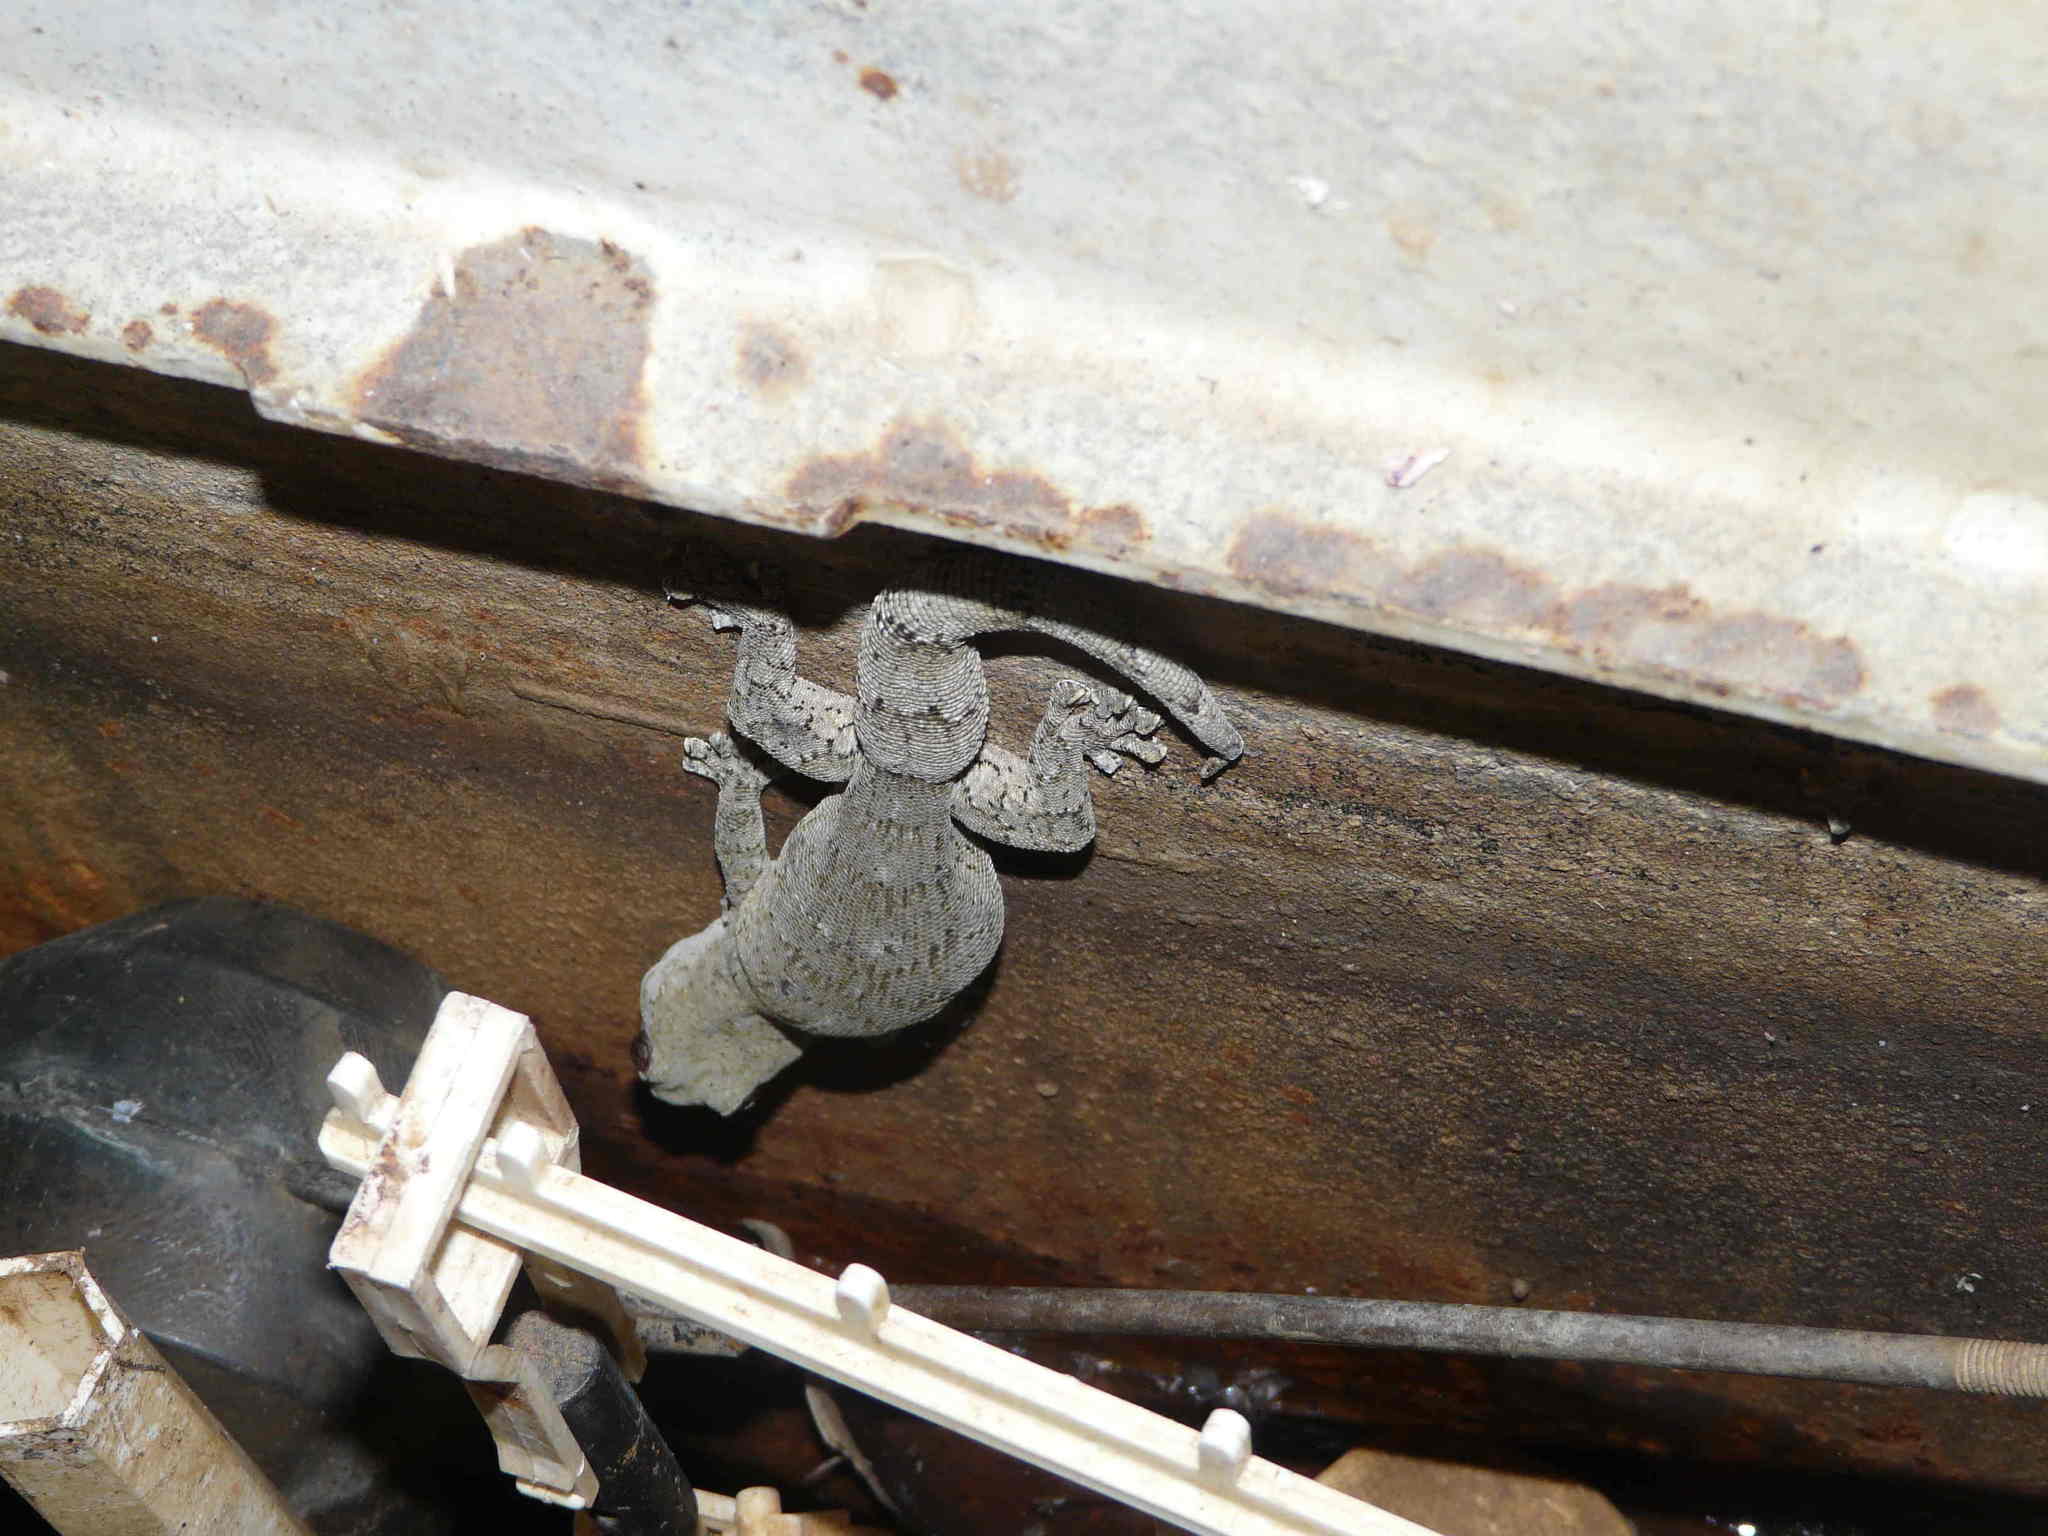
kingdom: Animalia
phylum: Chordata
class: Squamata
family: Gekkonidae
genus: Homopholis
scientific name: Homopholis arnoldi
